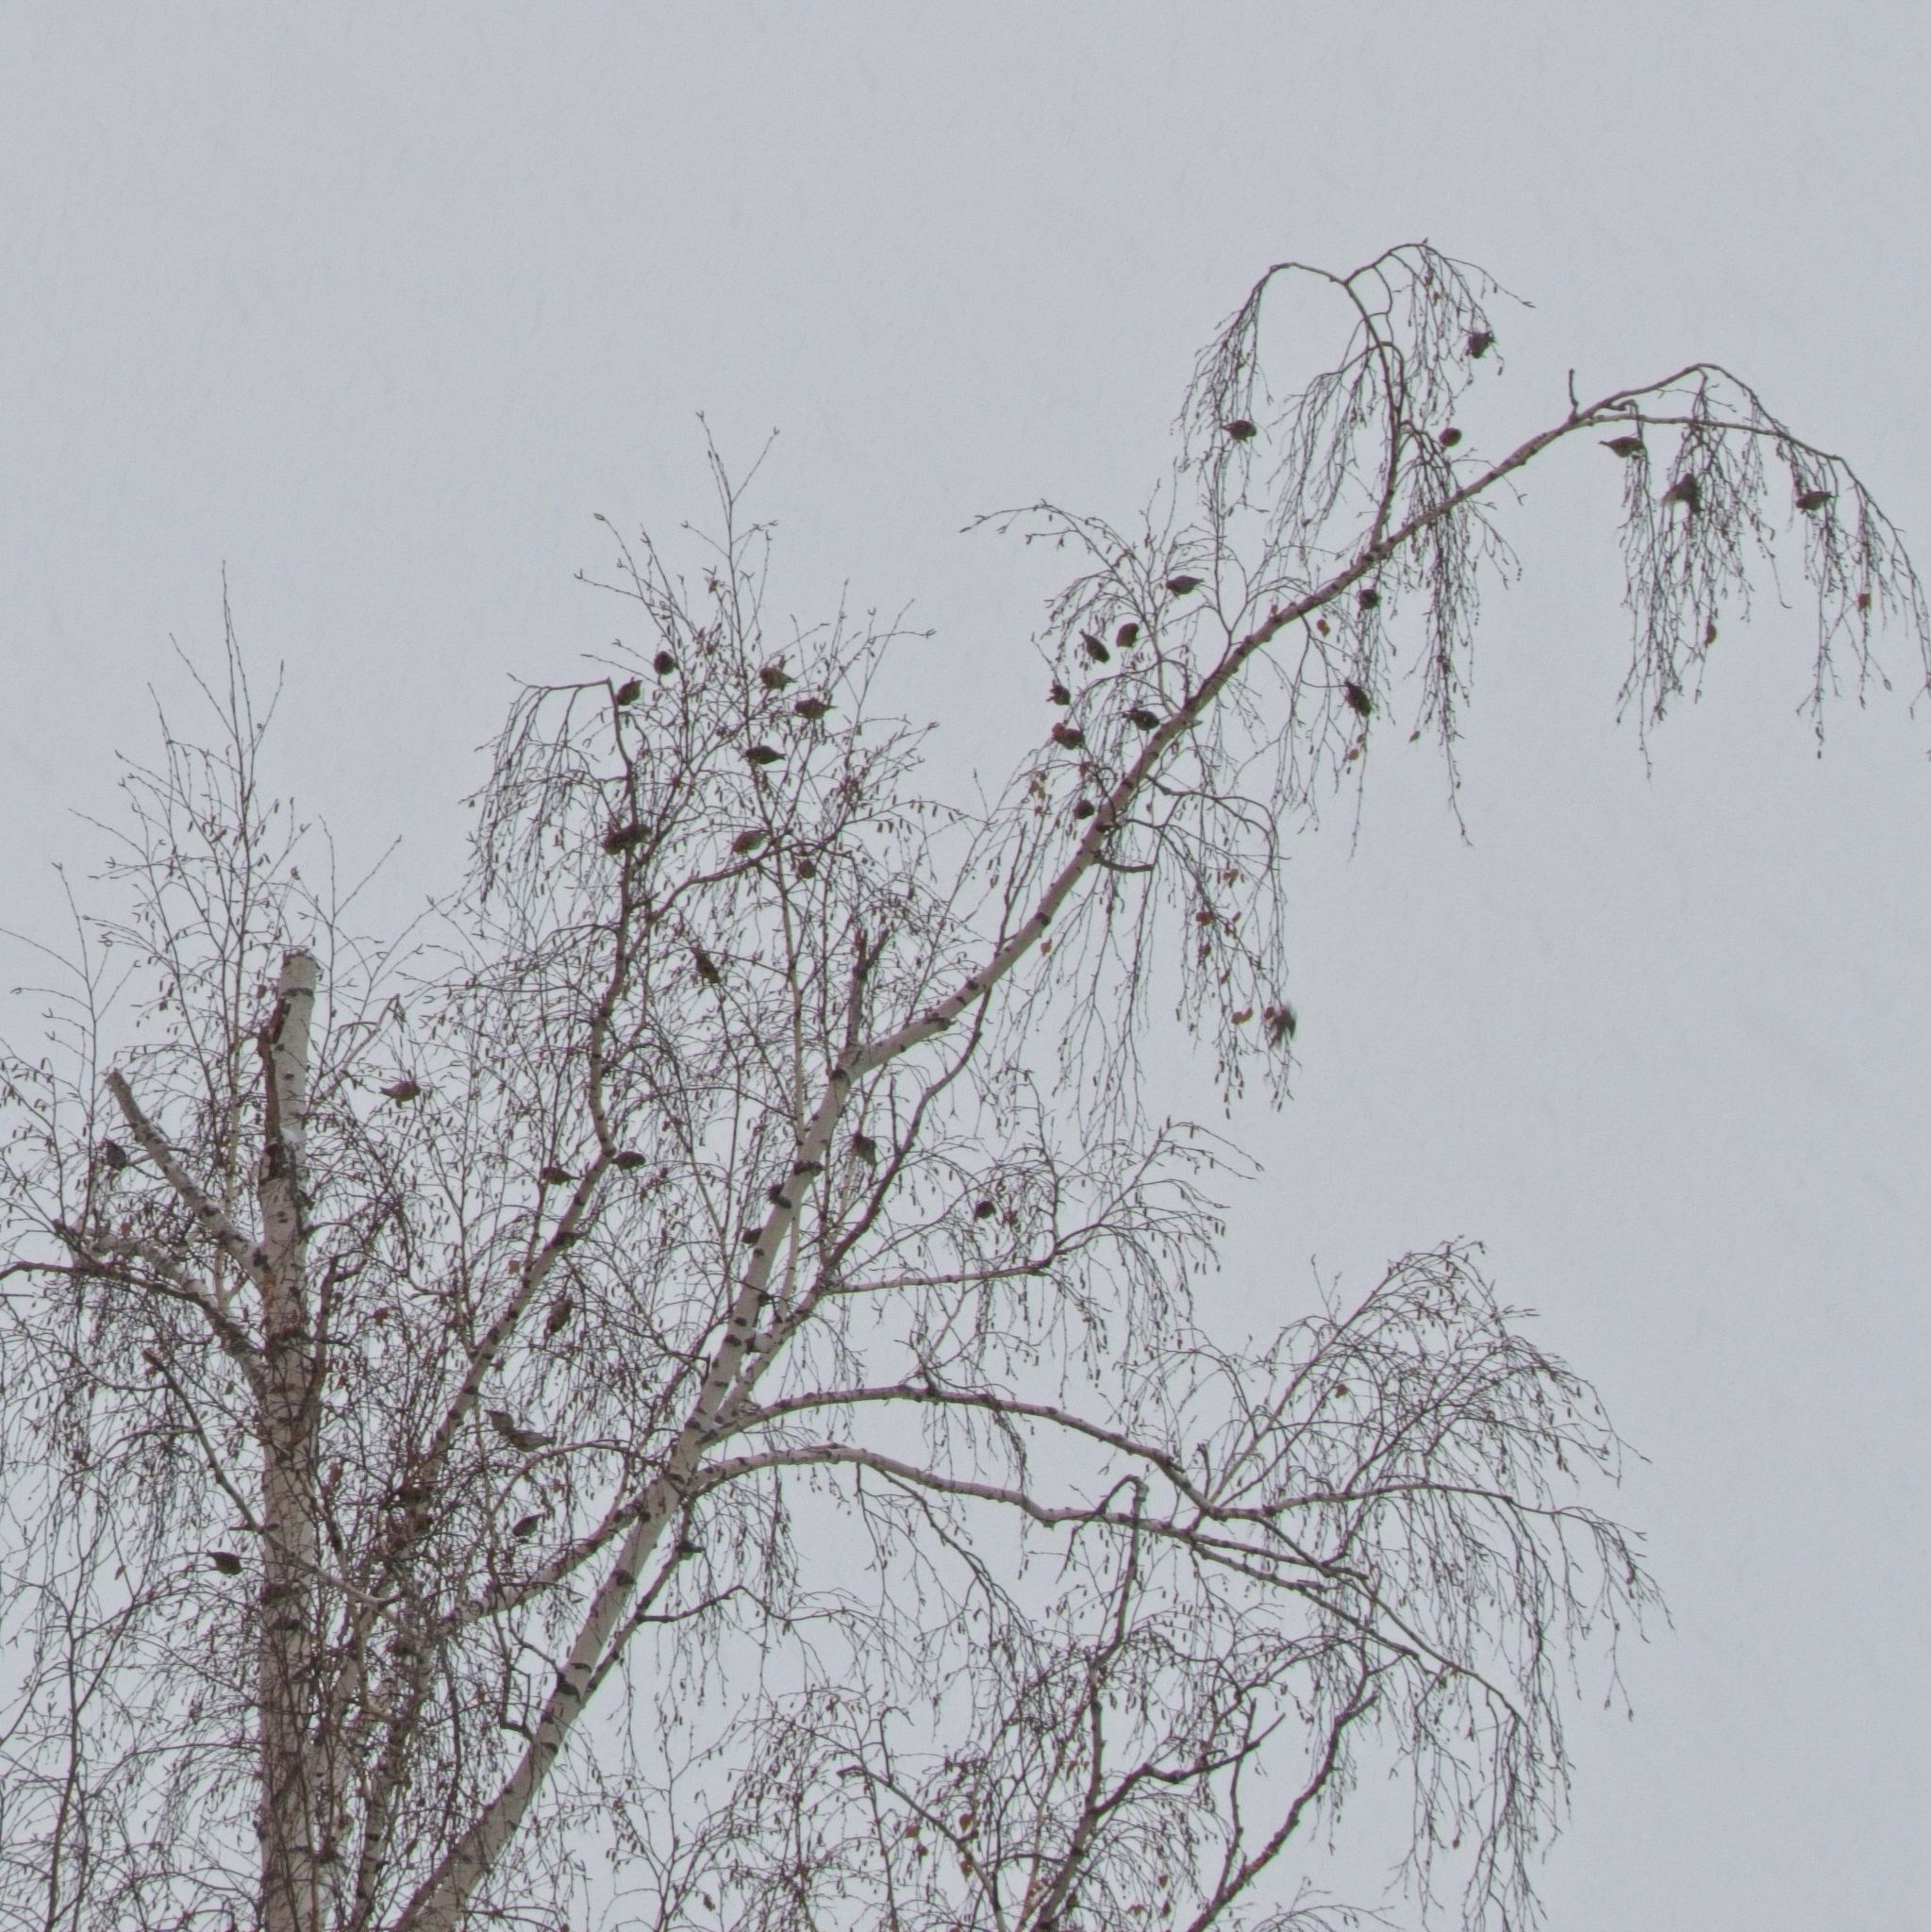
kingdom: Animalia
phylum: Chordata
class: Aves
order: Passeriformes
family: Fringillidae
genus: Acanthis
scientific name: Acanthis flammea
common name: Common redpoll
